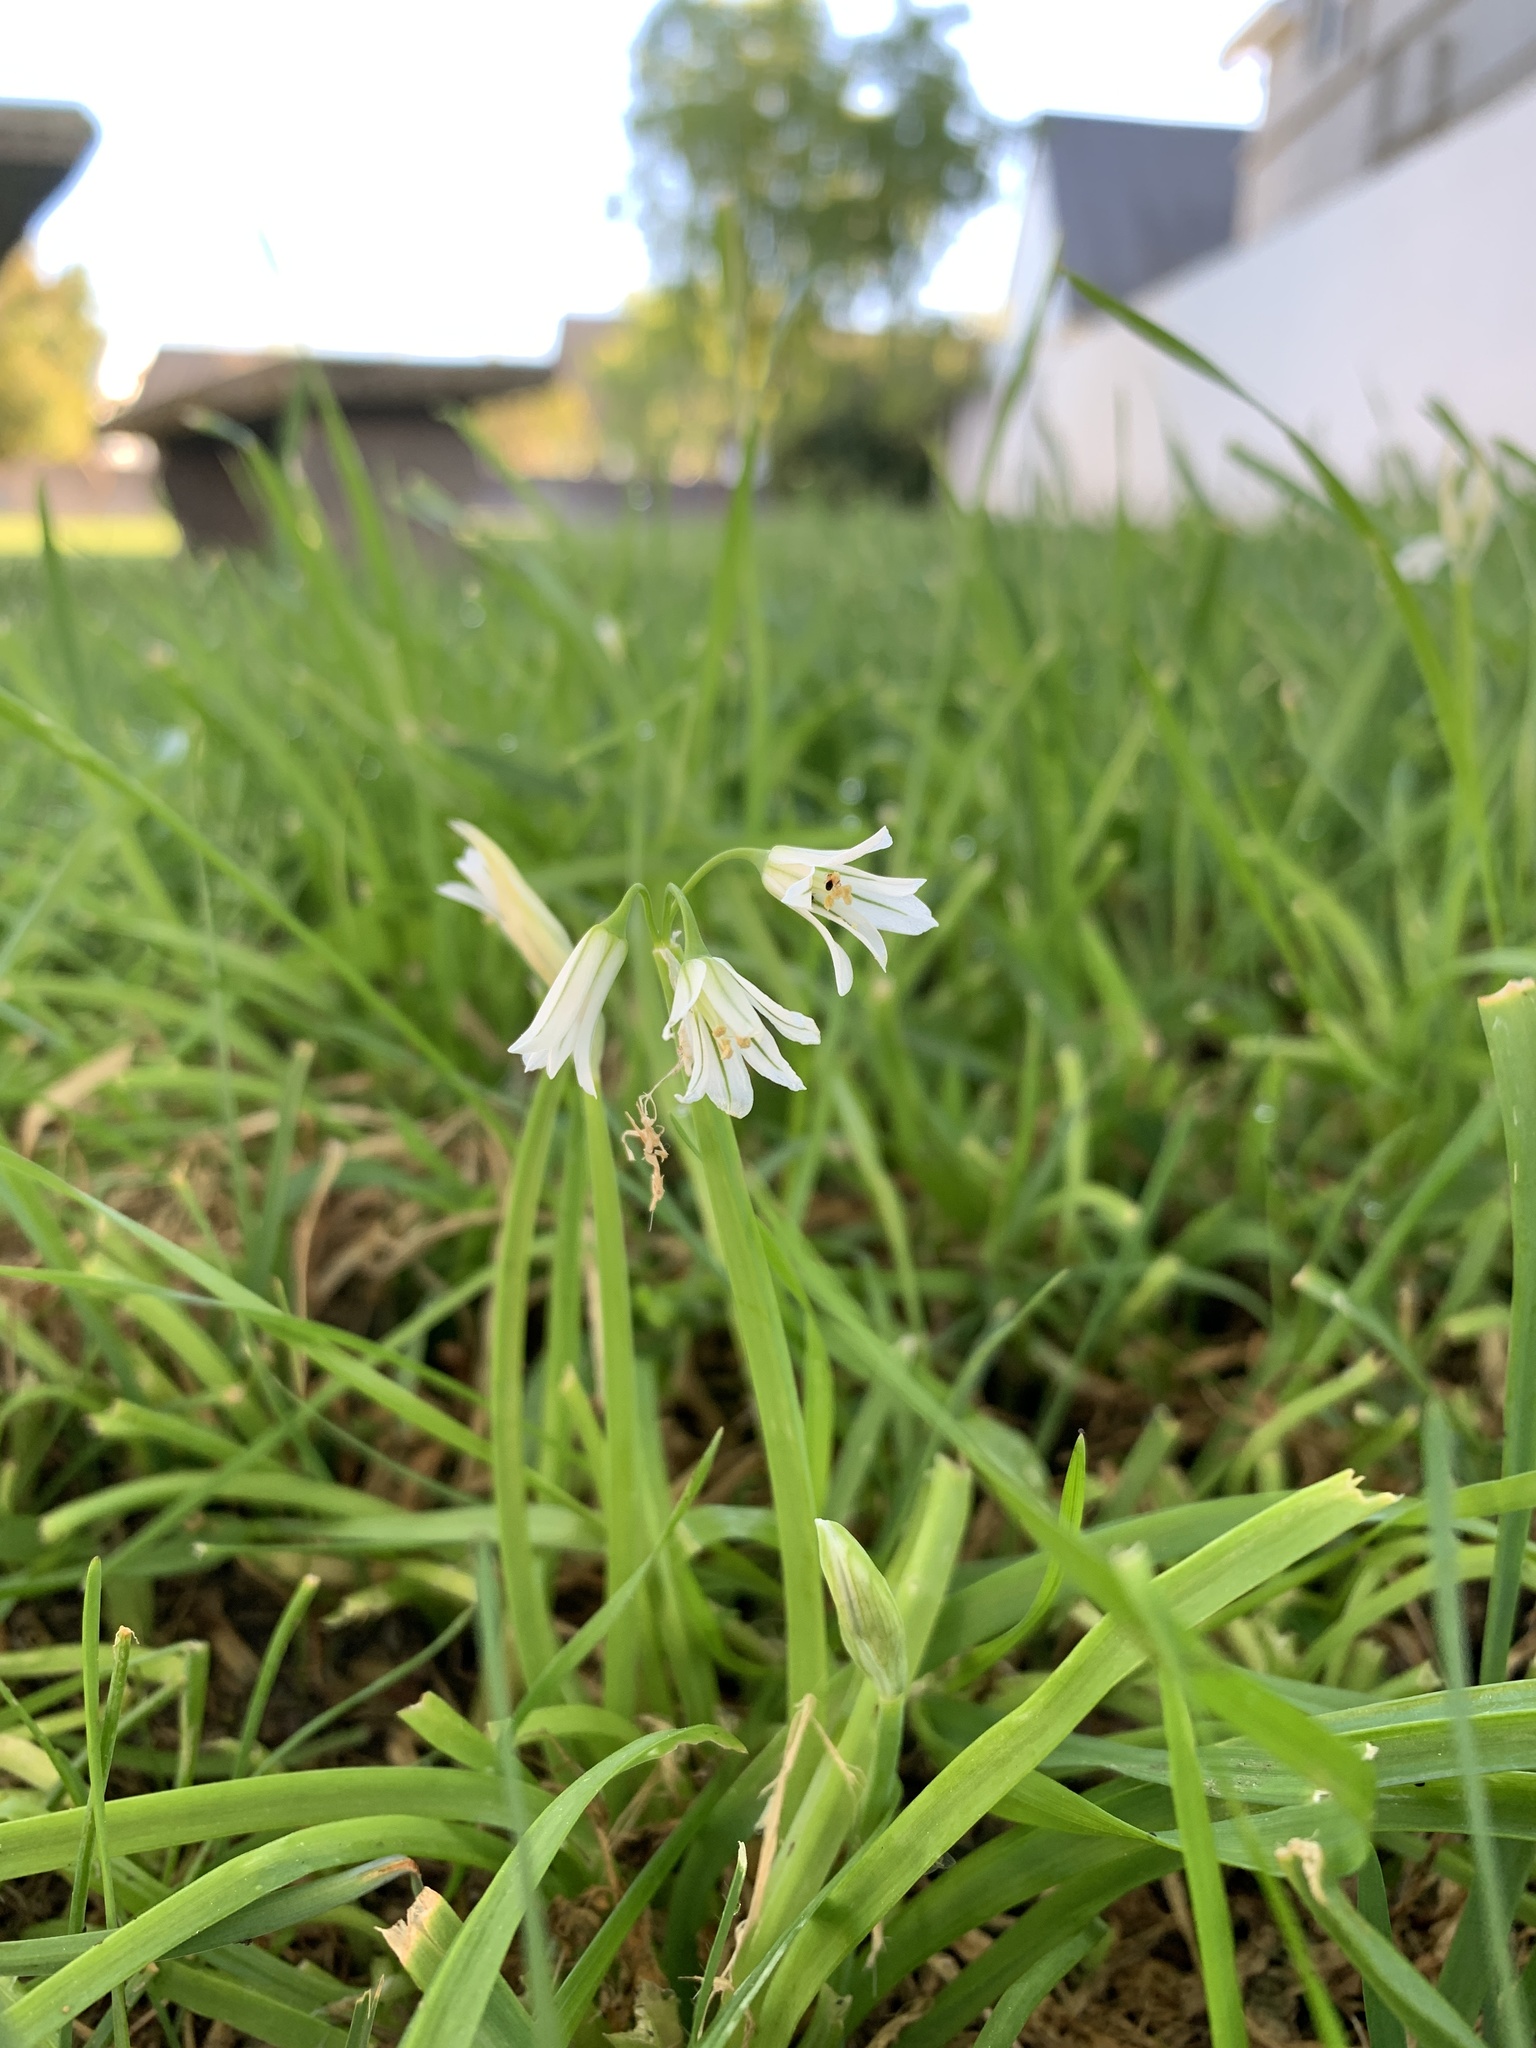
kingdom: Plantae
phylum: Tracheophyta
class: Liliopsida
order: Asparagales
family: Amaryllidaceae
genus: Allium
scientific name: Allium triquetrum
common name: Three-cornered garlic
